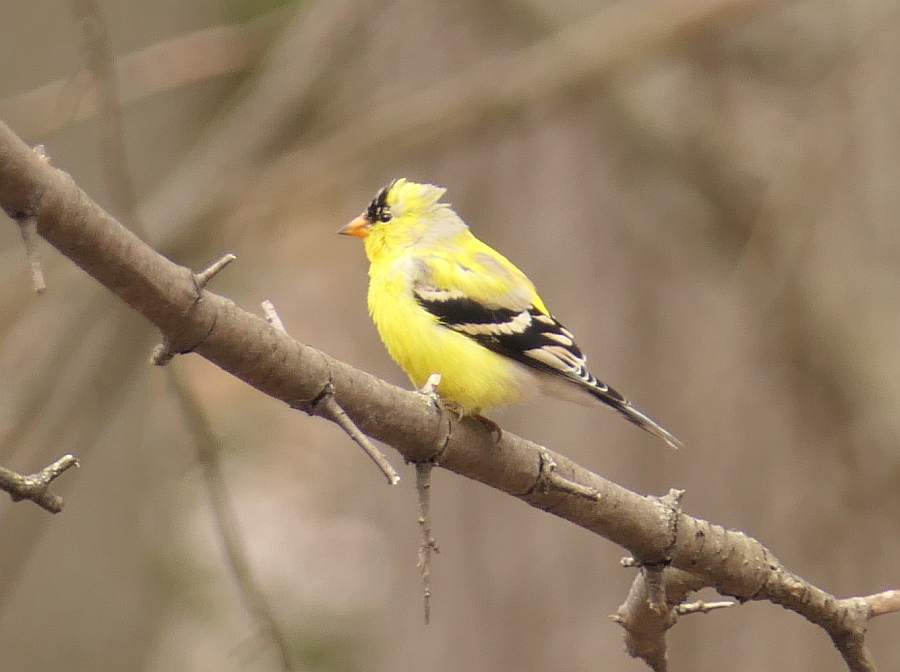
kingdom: Animalia
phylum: Chordata
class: Aves
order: Passeriformes
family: Fringillidae
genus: Spinus
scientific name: Spinus tristis
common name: American goldfinch
